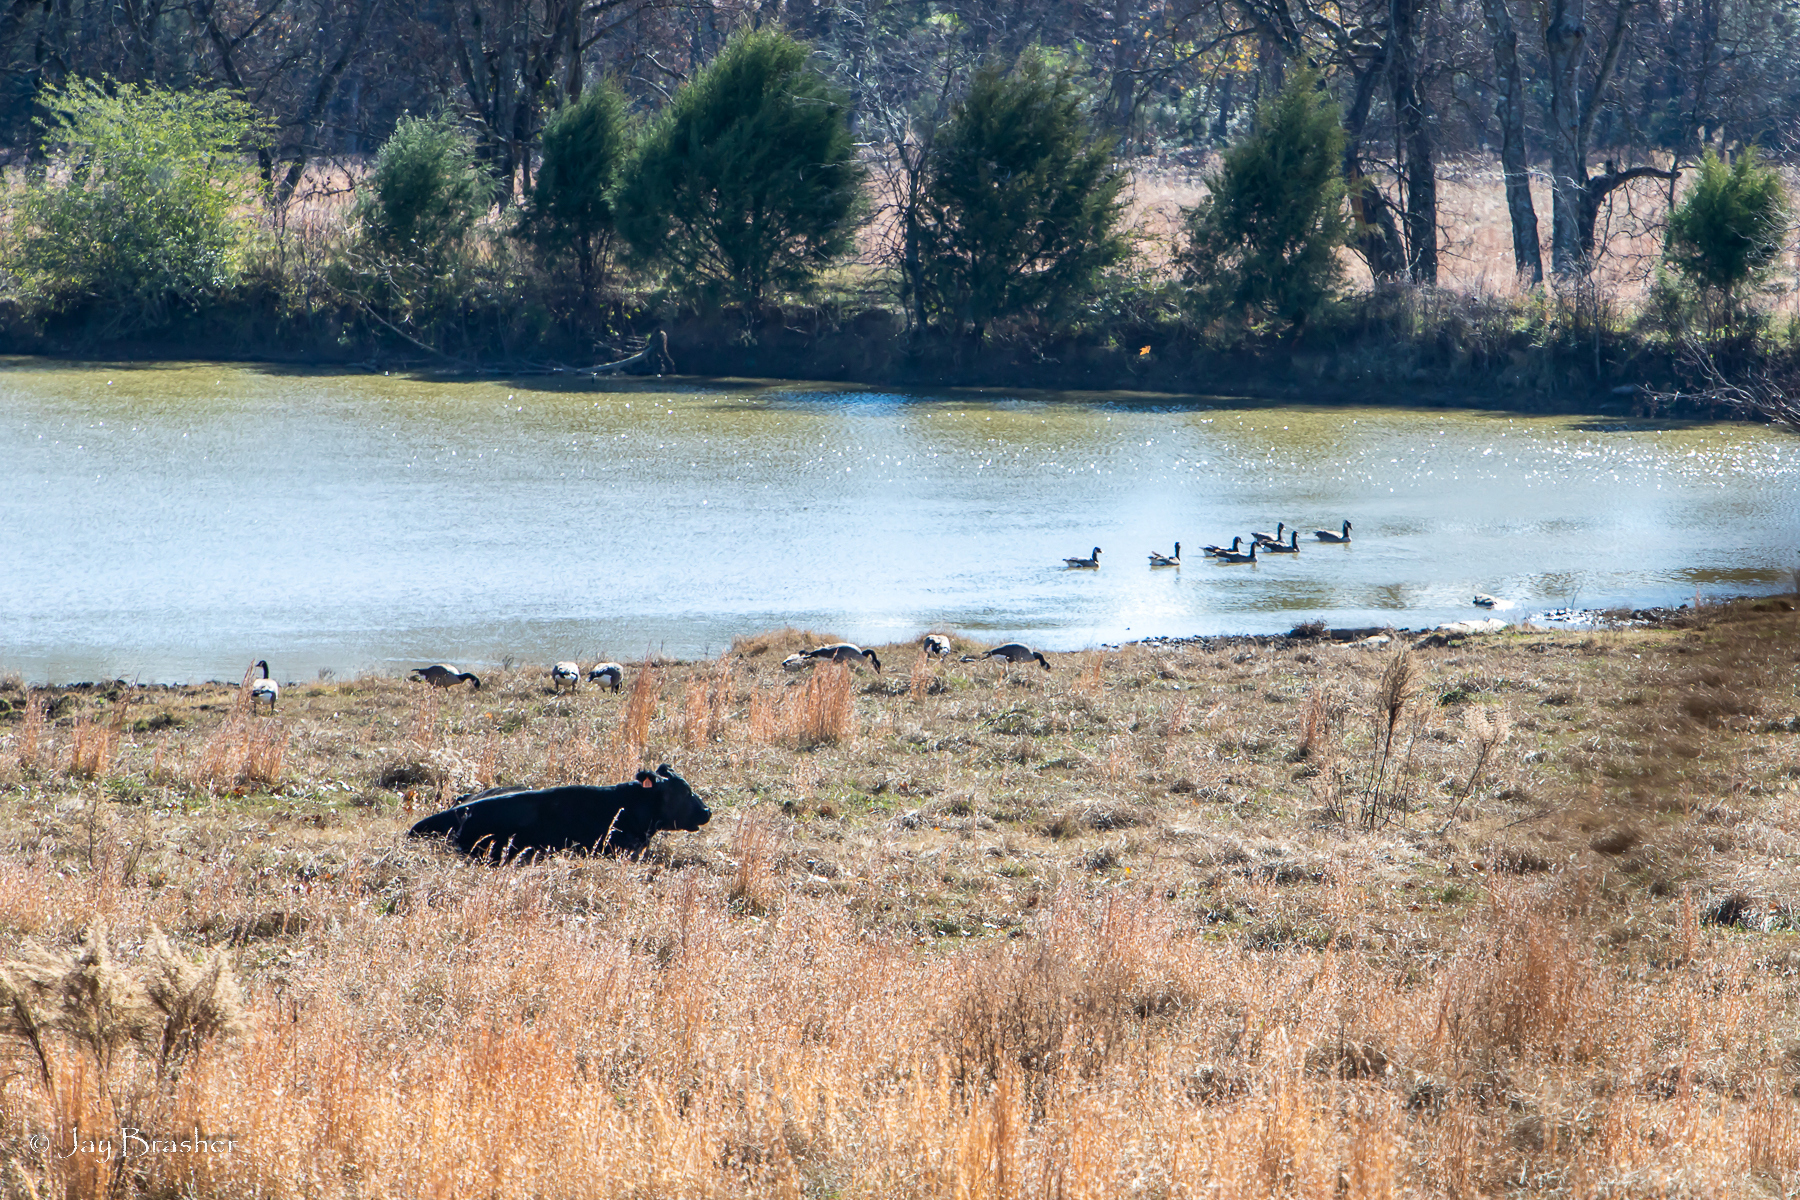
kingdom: Animalia
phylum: Chordata
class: Aves
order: Anseriformes
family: Anatidae
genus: Branta
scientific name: Branta canadensis
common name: Canada goose
